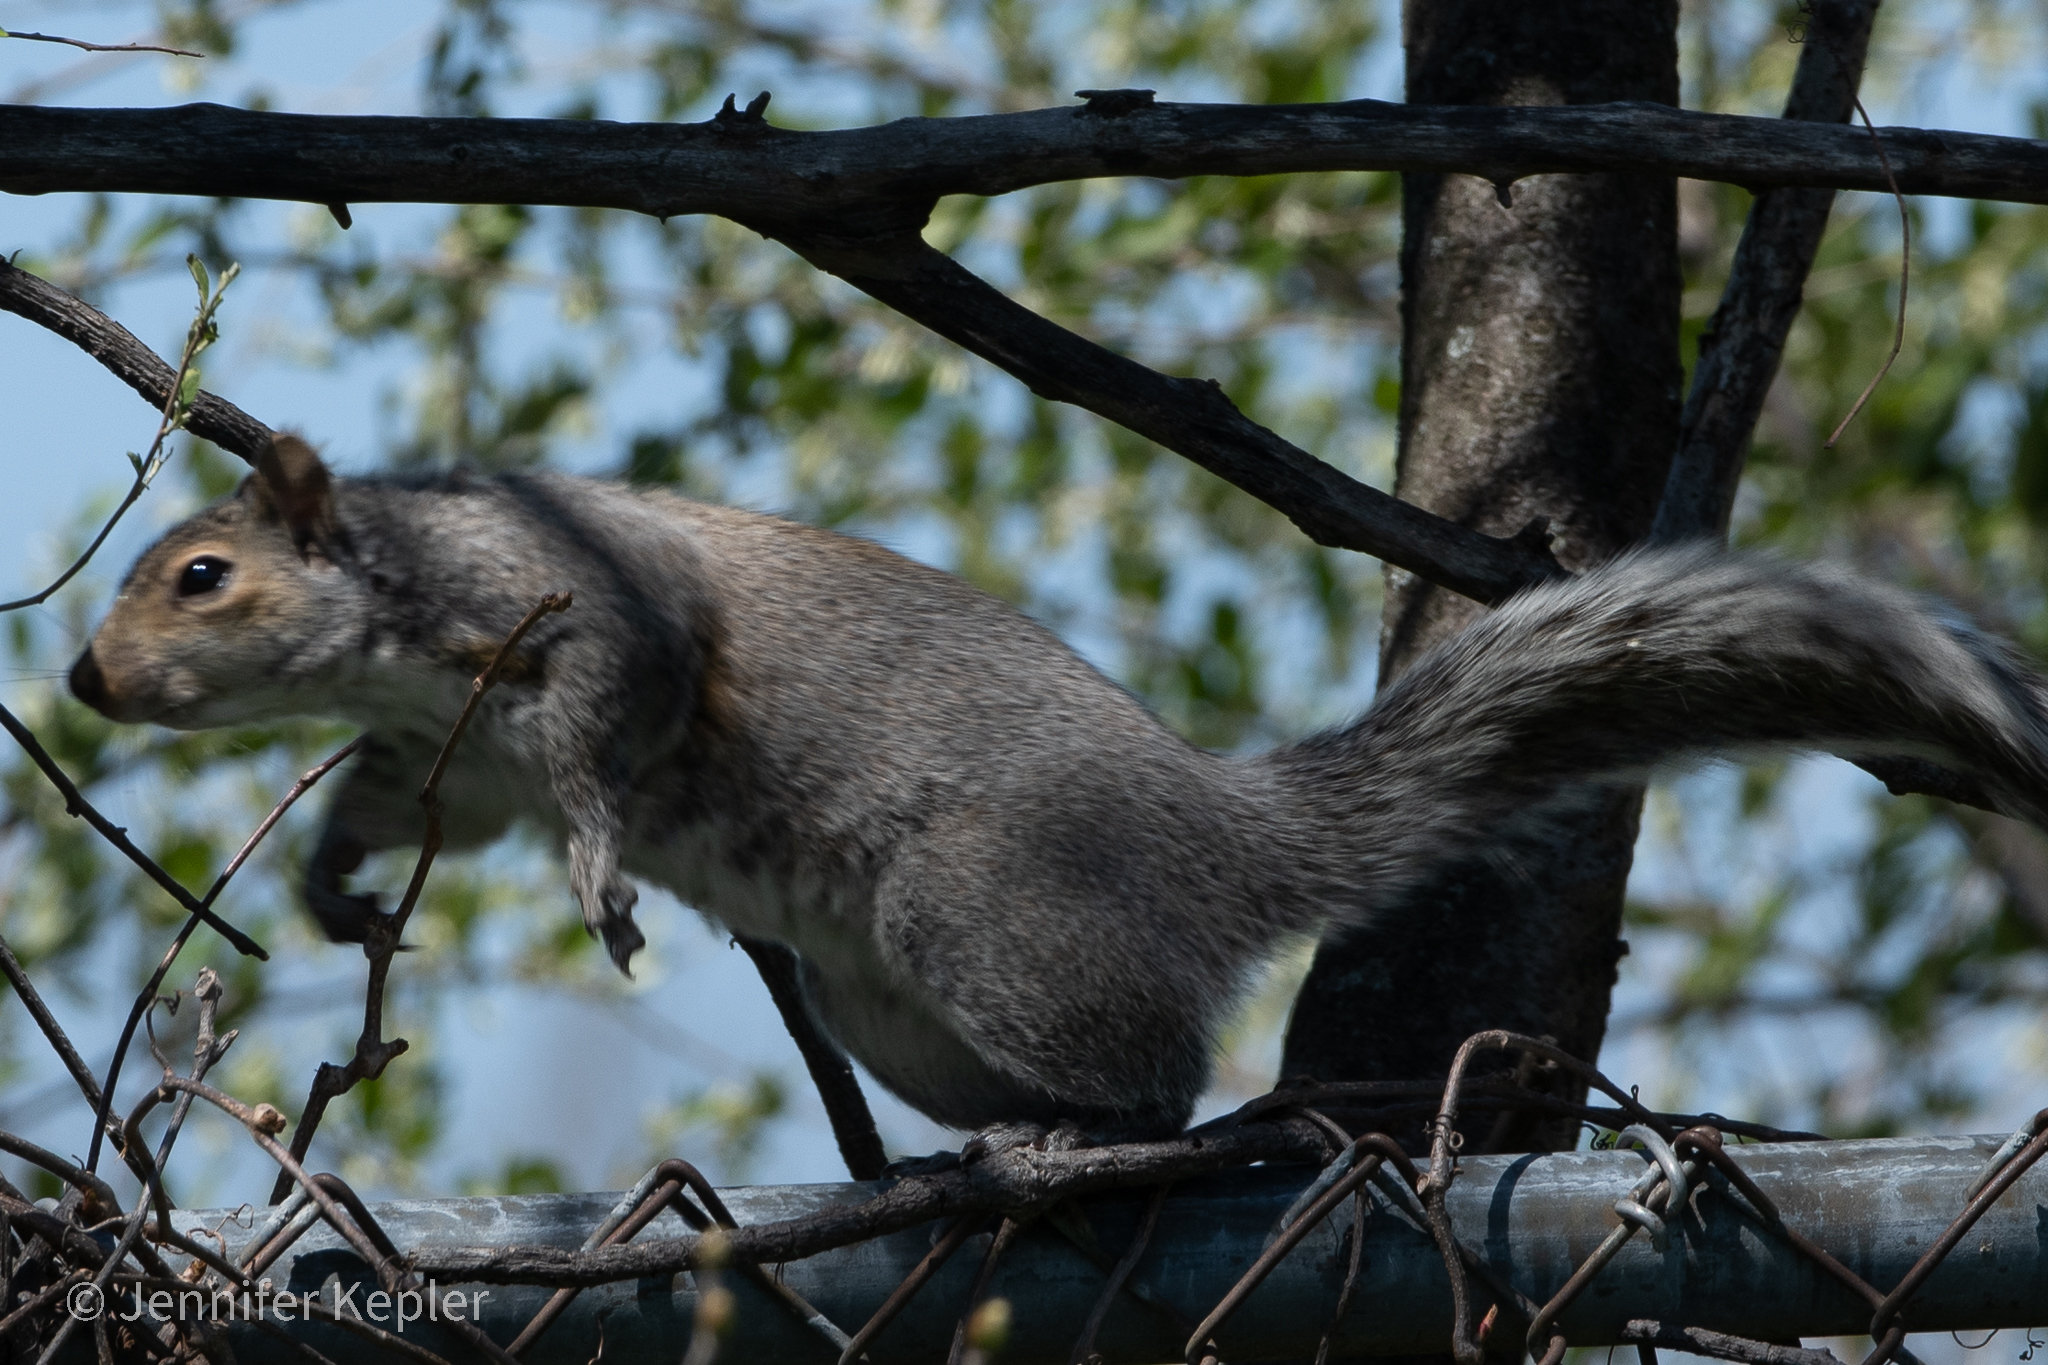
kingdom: Animalia
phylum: Chordata
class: Mammalia
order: Rodentia
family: Sciuridae
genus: Sciurus
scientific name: Sciurus carolinensis
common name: Eastern gray squirrel
